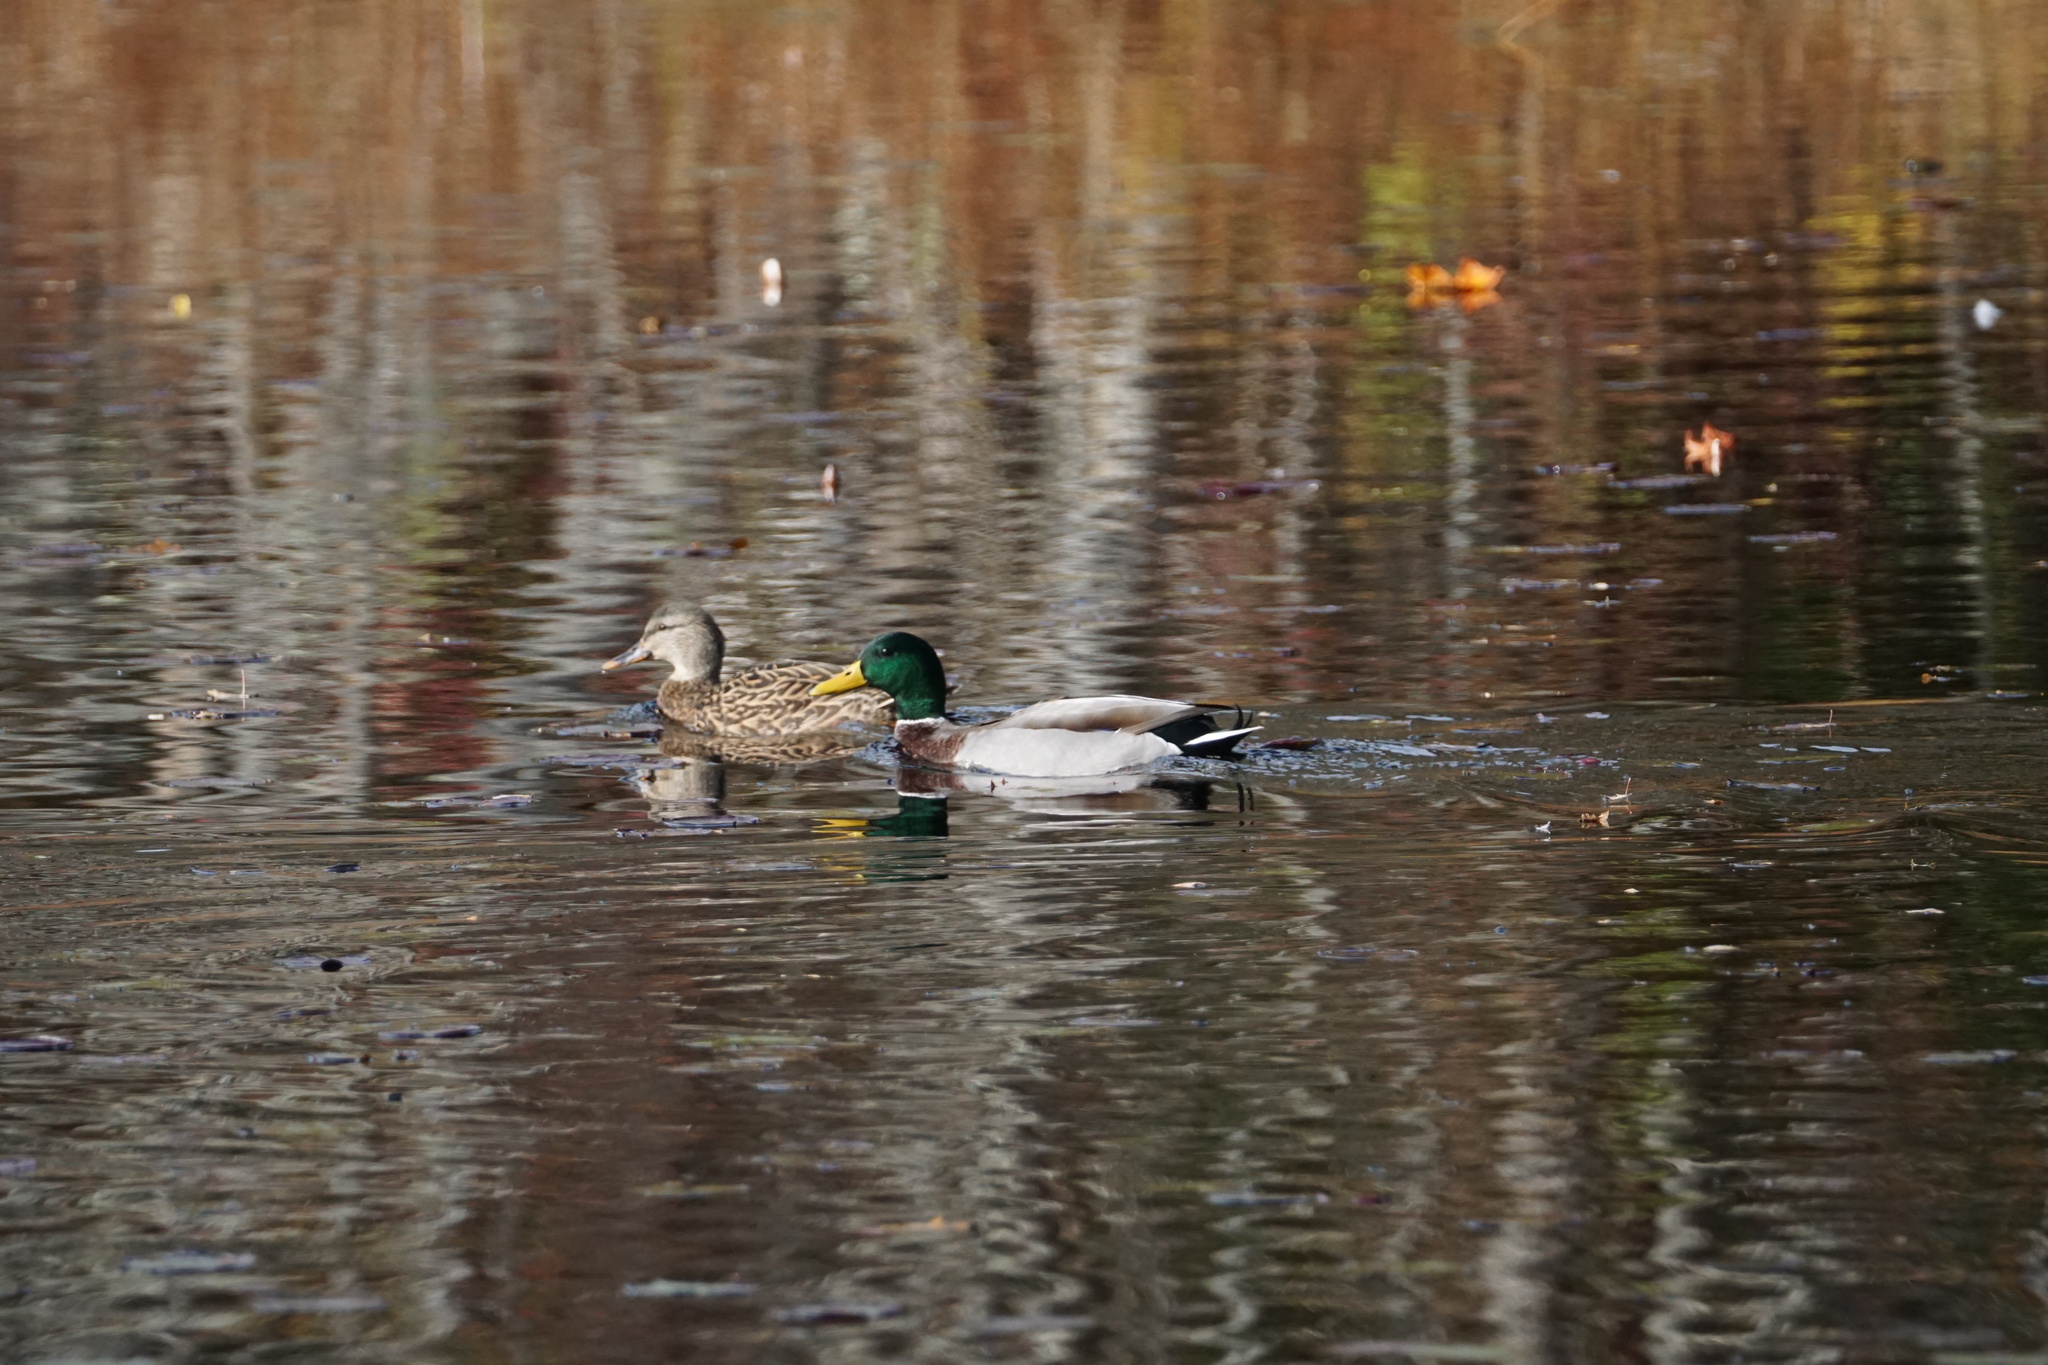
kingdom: Animalia
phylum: Chordata
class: Aves
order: Anseriformes
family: Anatidae
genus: Anas
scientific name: Anas platyrhynchos
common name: Mallard
